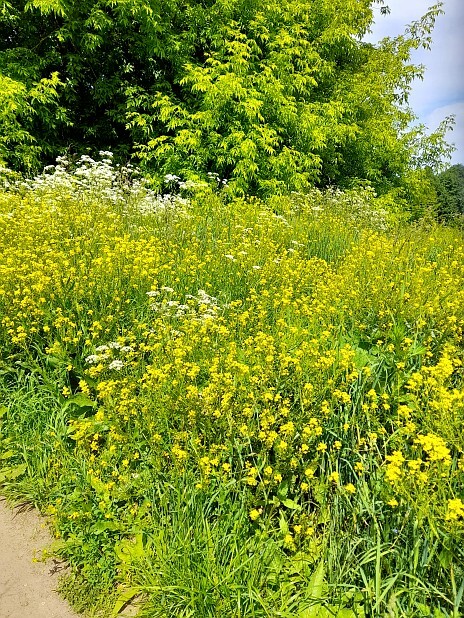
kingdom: Plantae
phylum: Tracheophyta
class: Magnoliopsida
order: Brassicales
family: Brassicaceae
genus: Barbarea
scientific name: Barbarea vulgaris
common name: Cressy-greens
